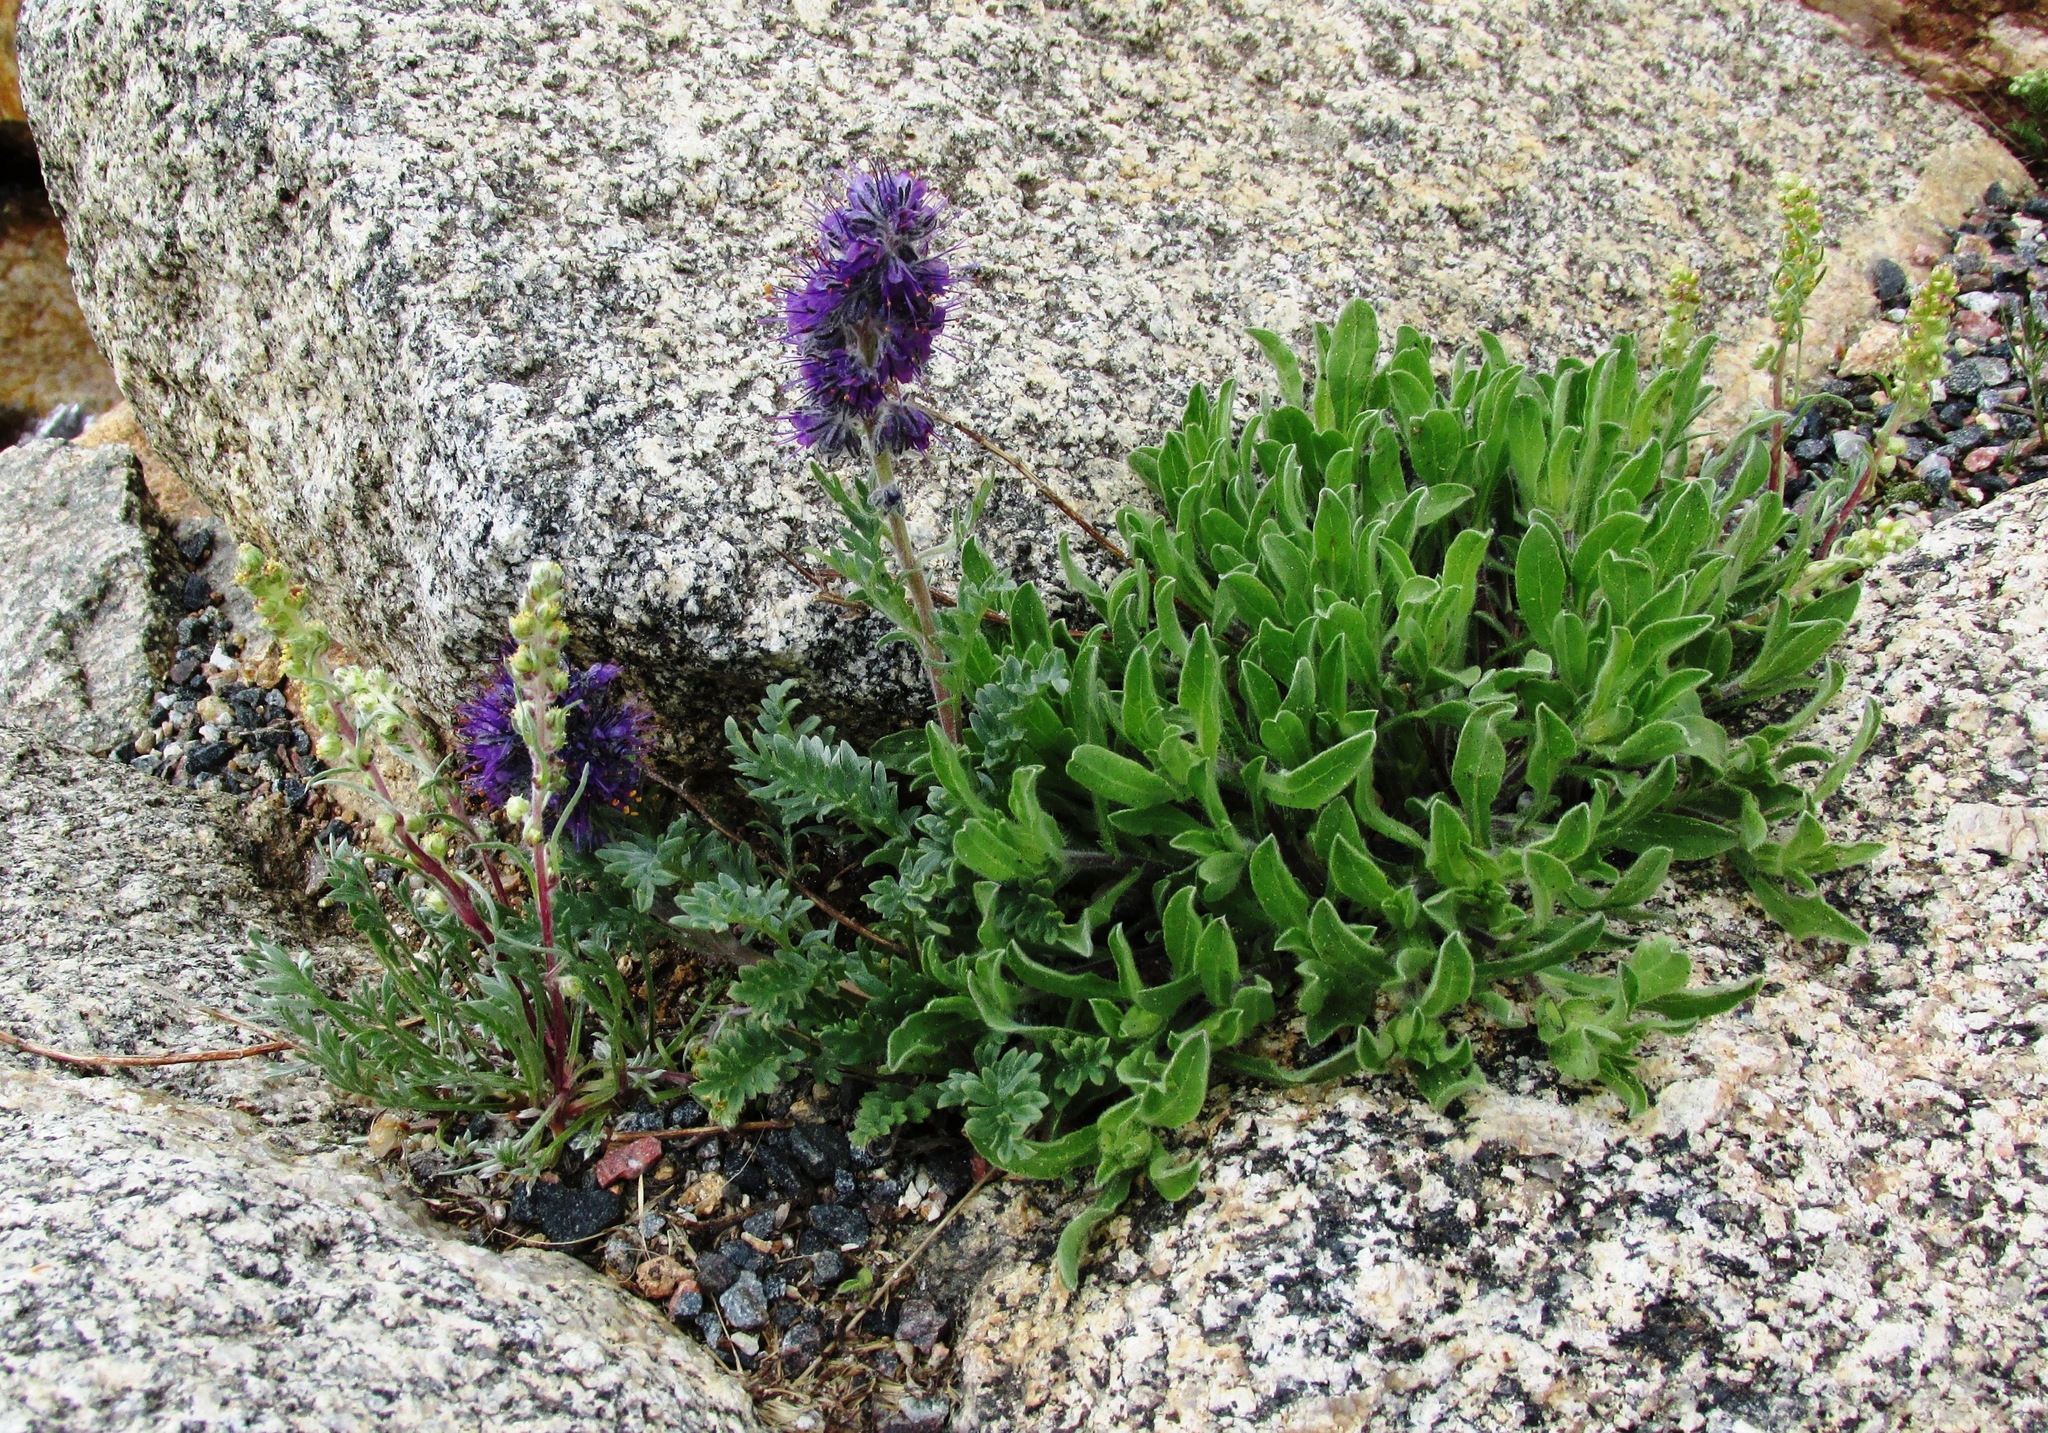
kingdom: Plantae
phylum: Tracheophyta
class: Magnoliopsida
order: Boraginales
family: Hydrophyllaceae
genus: Phacelia
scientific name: Phacelia sericea
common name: Silky phacelia
